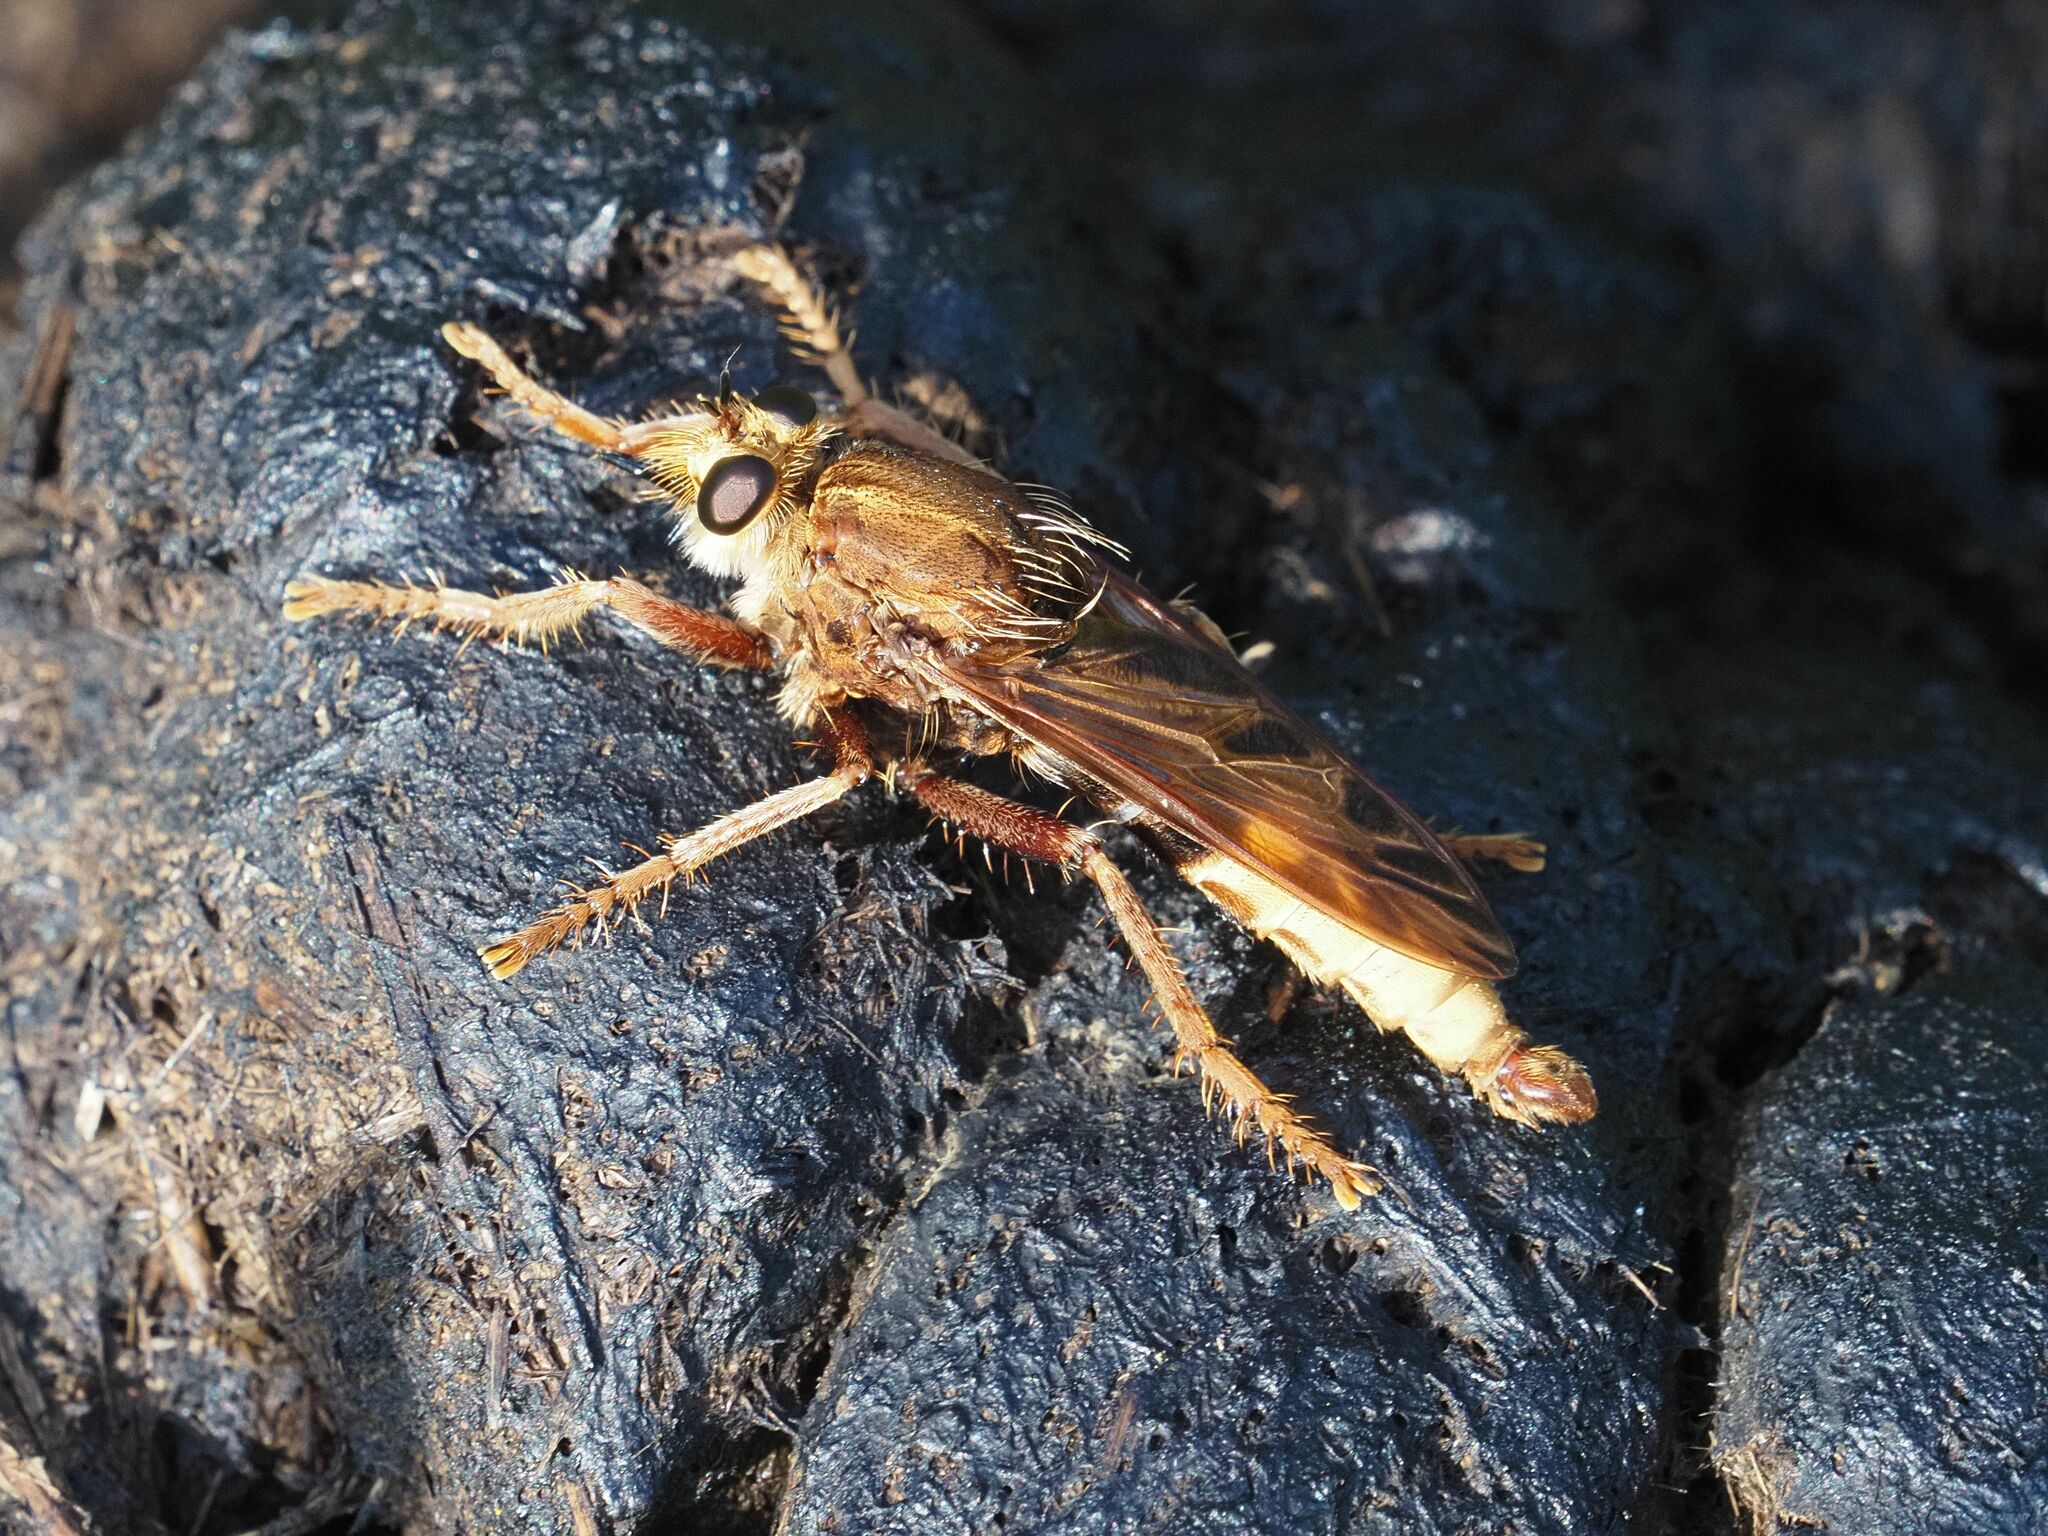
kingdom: Animalia
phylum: Arthropoda
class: Insecta
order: Diptera
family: Asilidae
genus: Asilus
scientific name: Asilus crabroniformis
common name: Hornet robberfly
